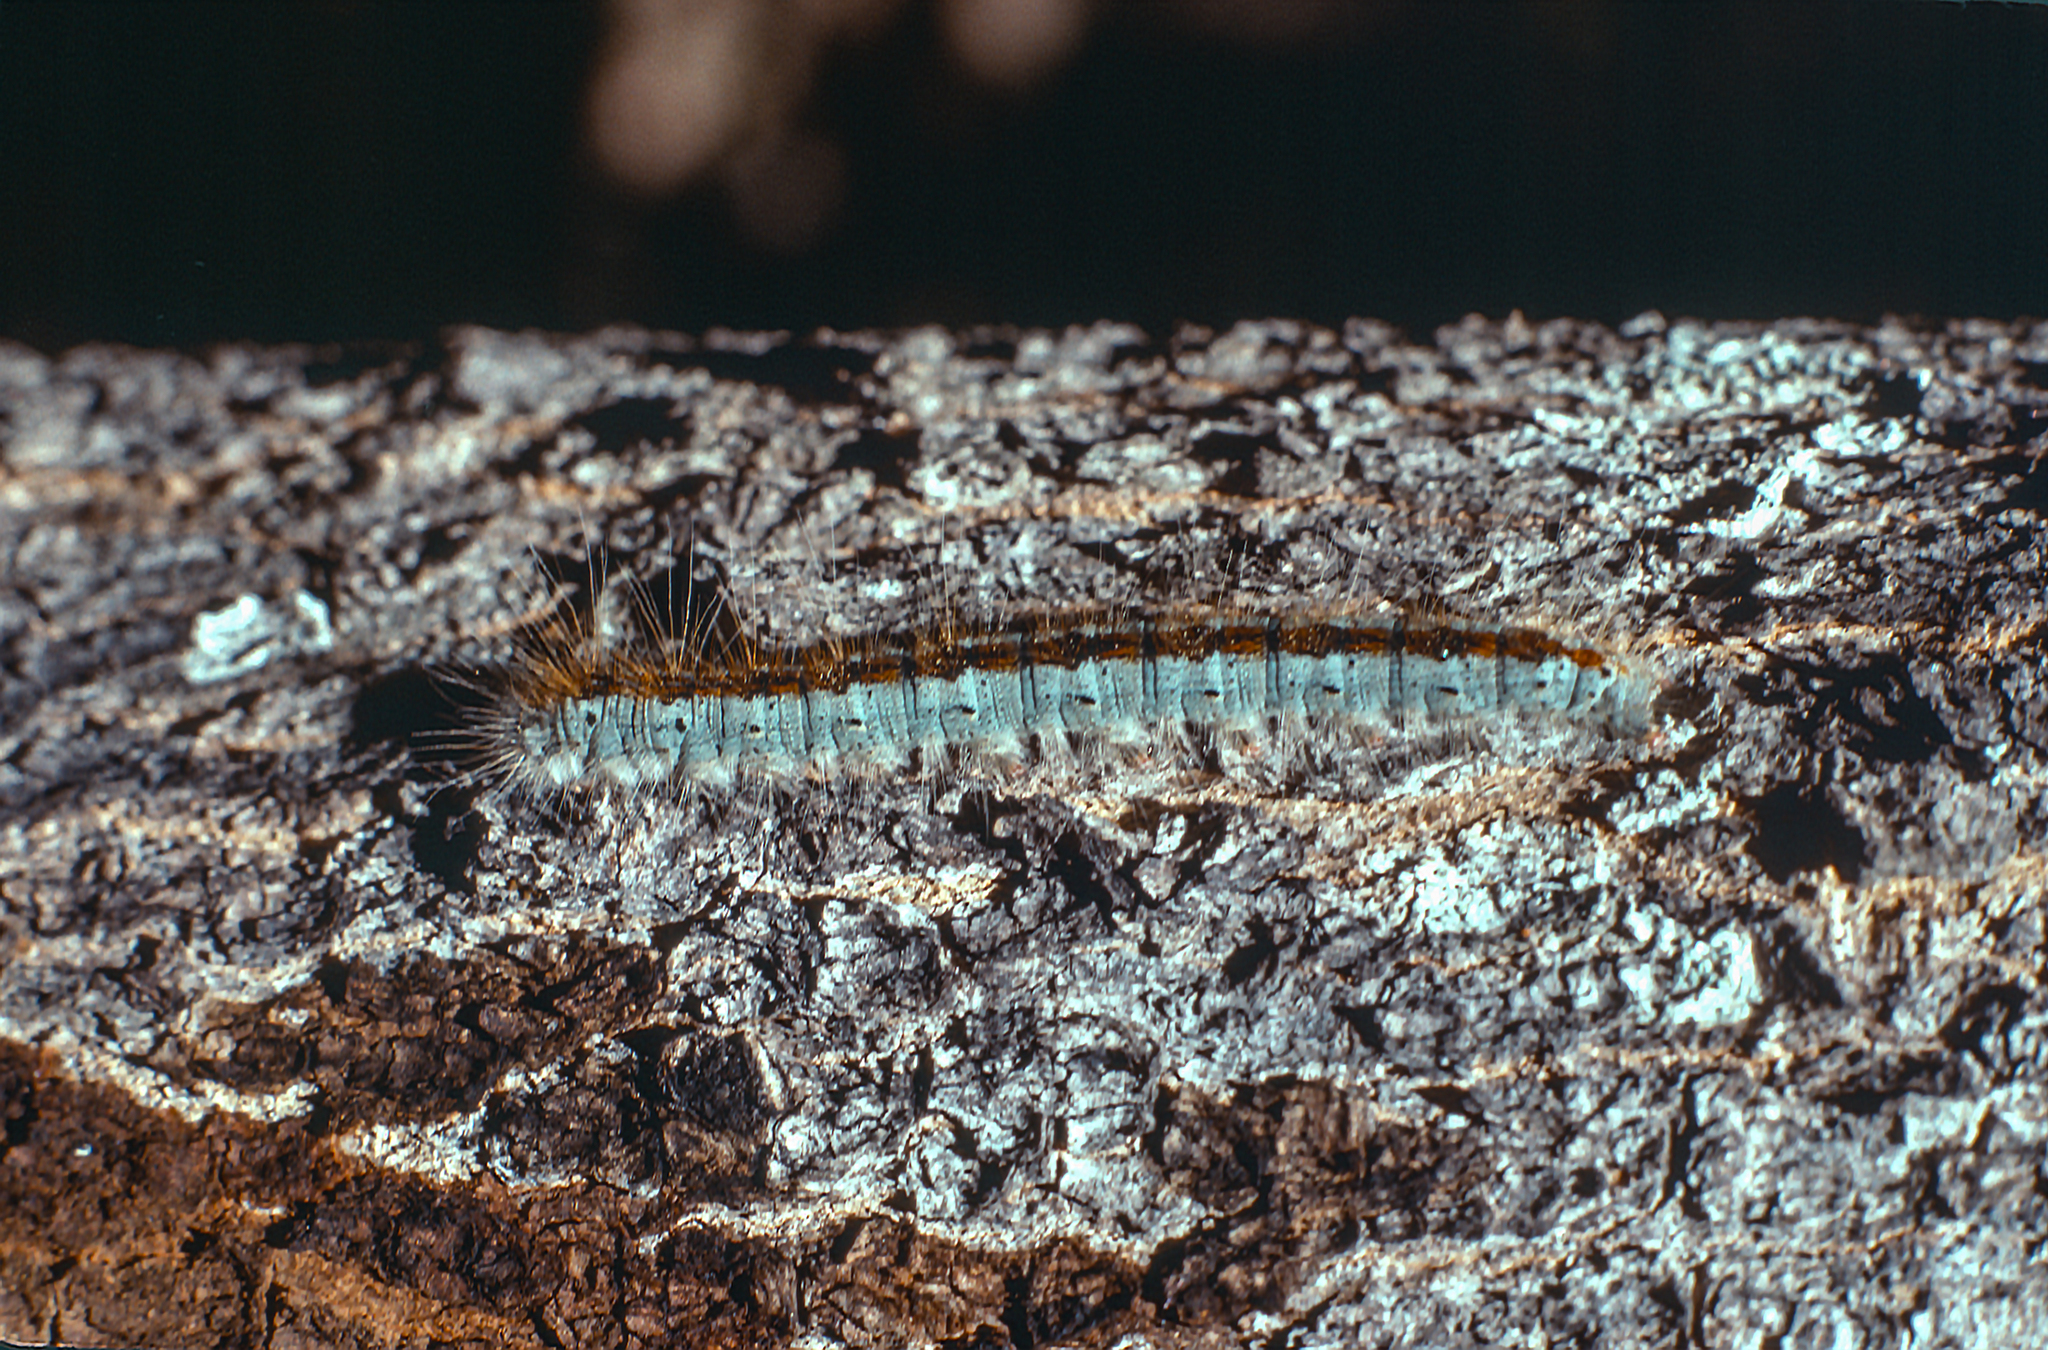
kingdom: Animalia
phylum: Arthropoda
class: Insecta
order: Lepidoptera
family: Lasiocampidae
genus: Malacosoma
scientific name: Malacosoma californica
